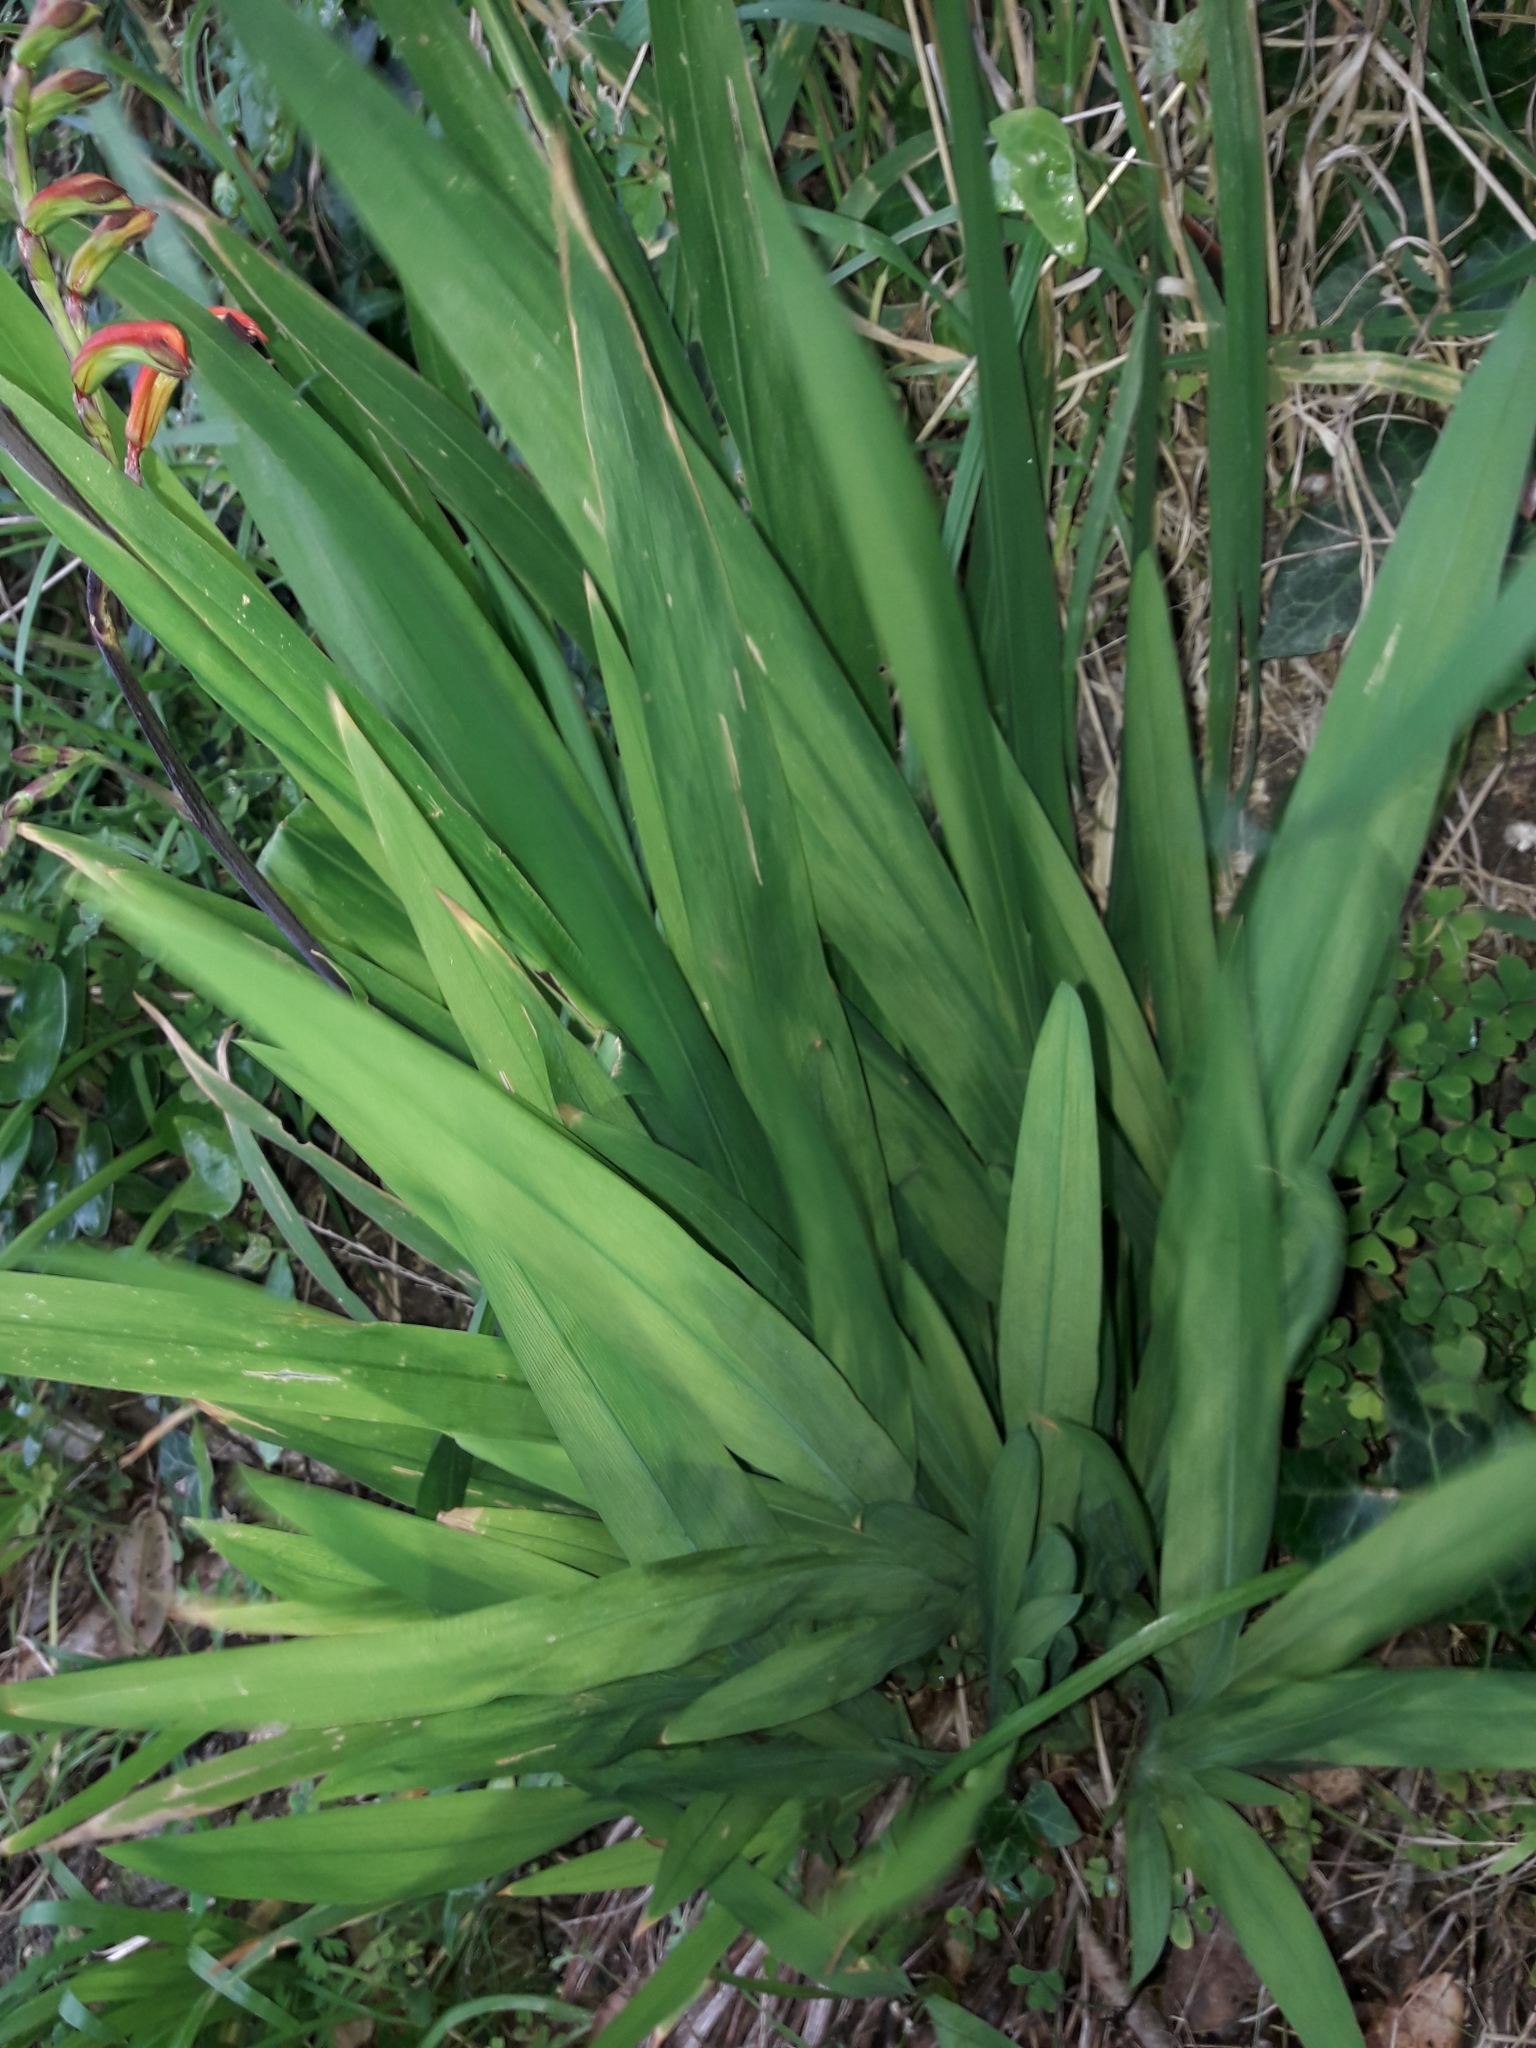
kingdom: Plantae
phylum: Tracheophyta
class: Liliopsida
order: Asparagales
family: Iridaceae
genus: Chasmanthe
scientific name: Chasmanthe bicolor
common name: Bicolor cobra lily
